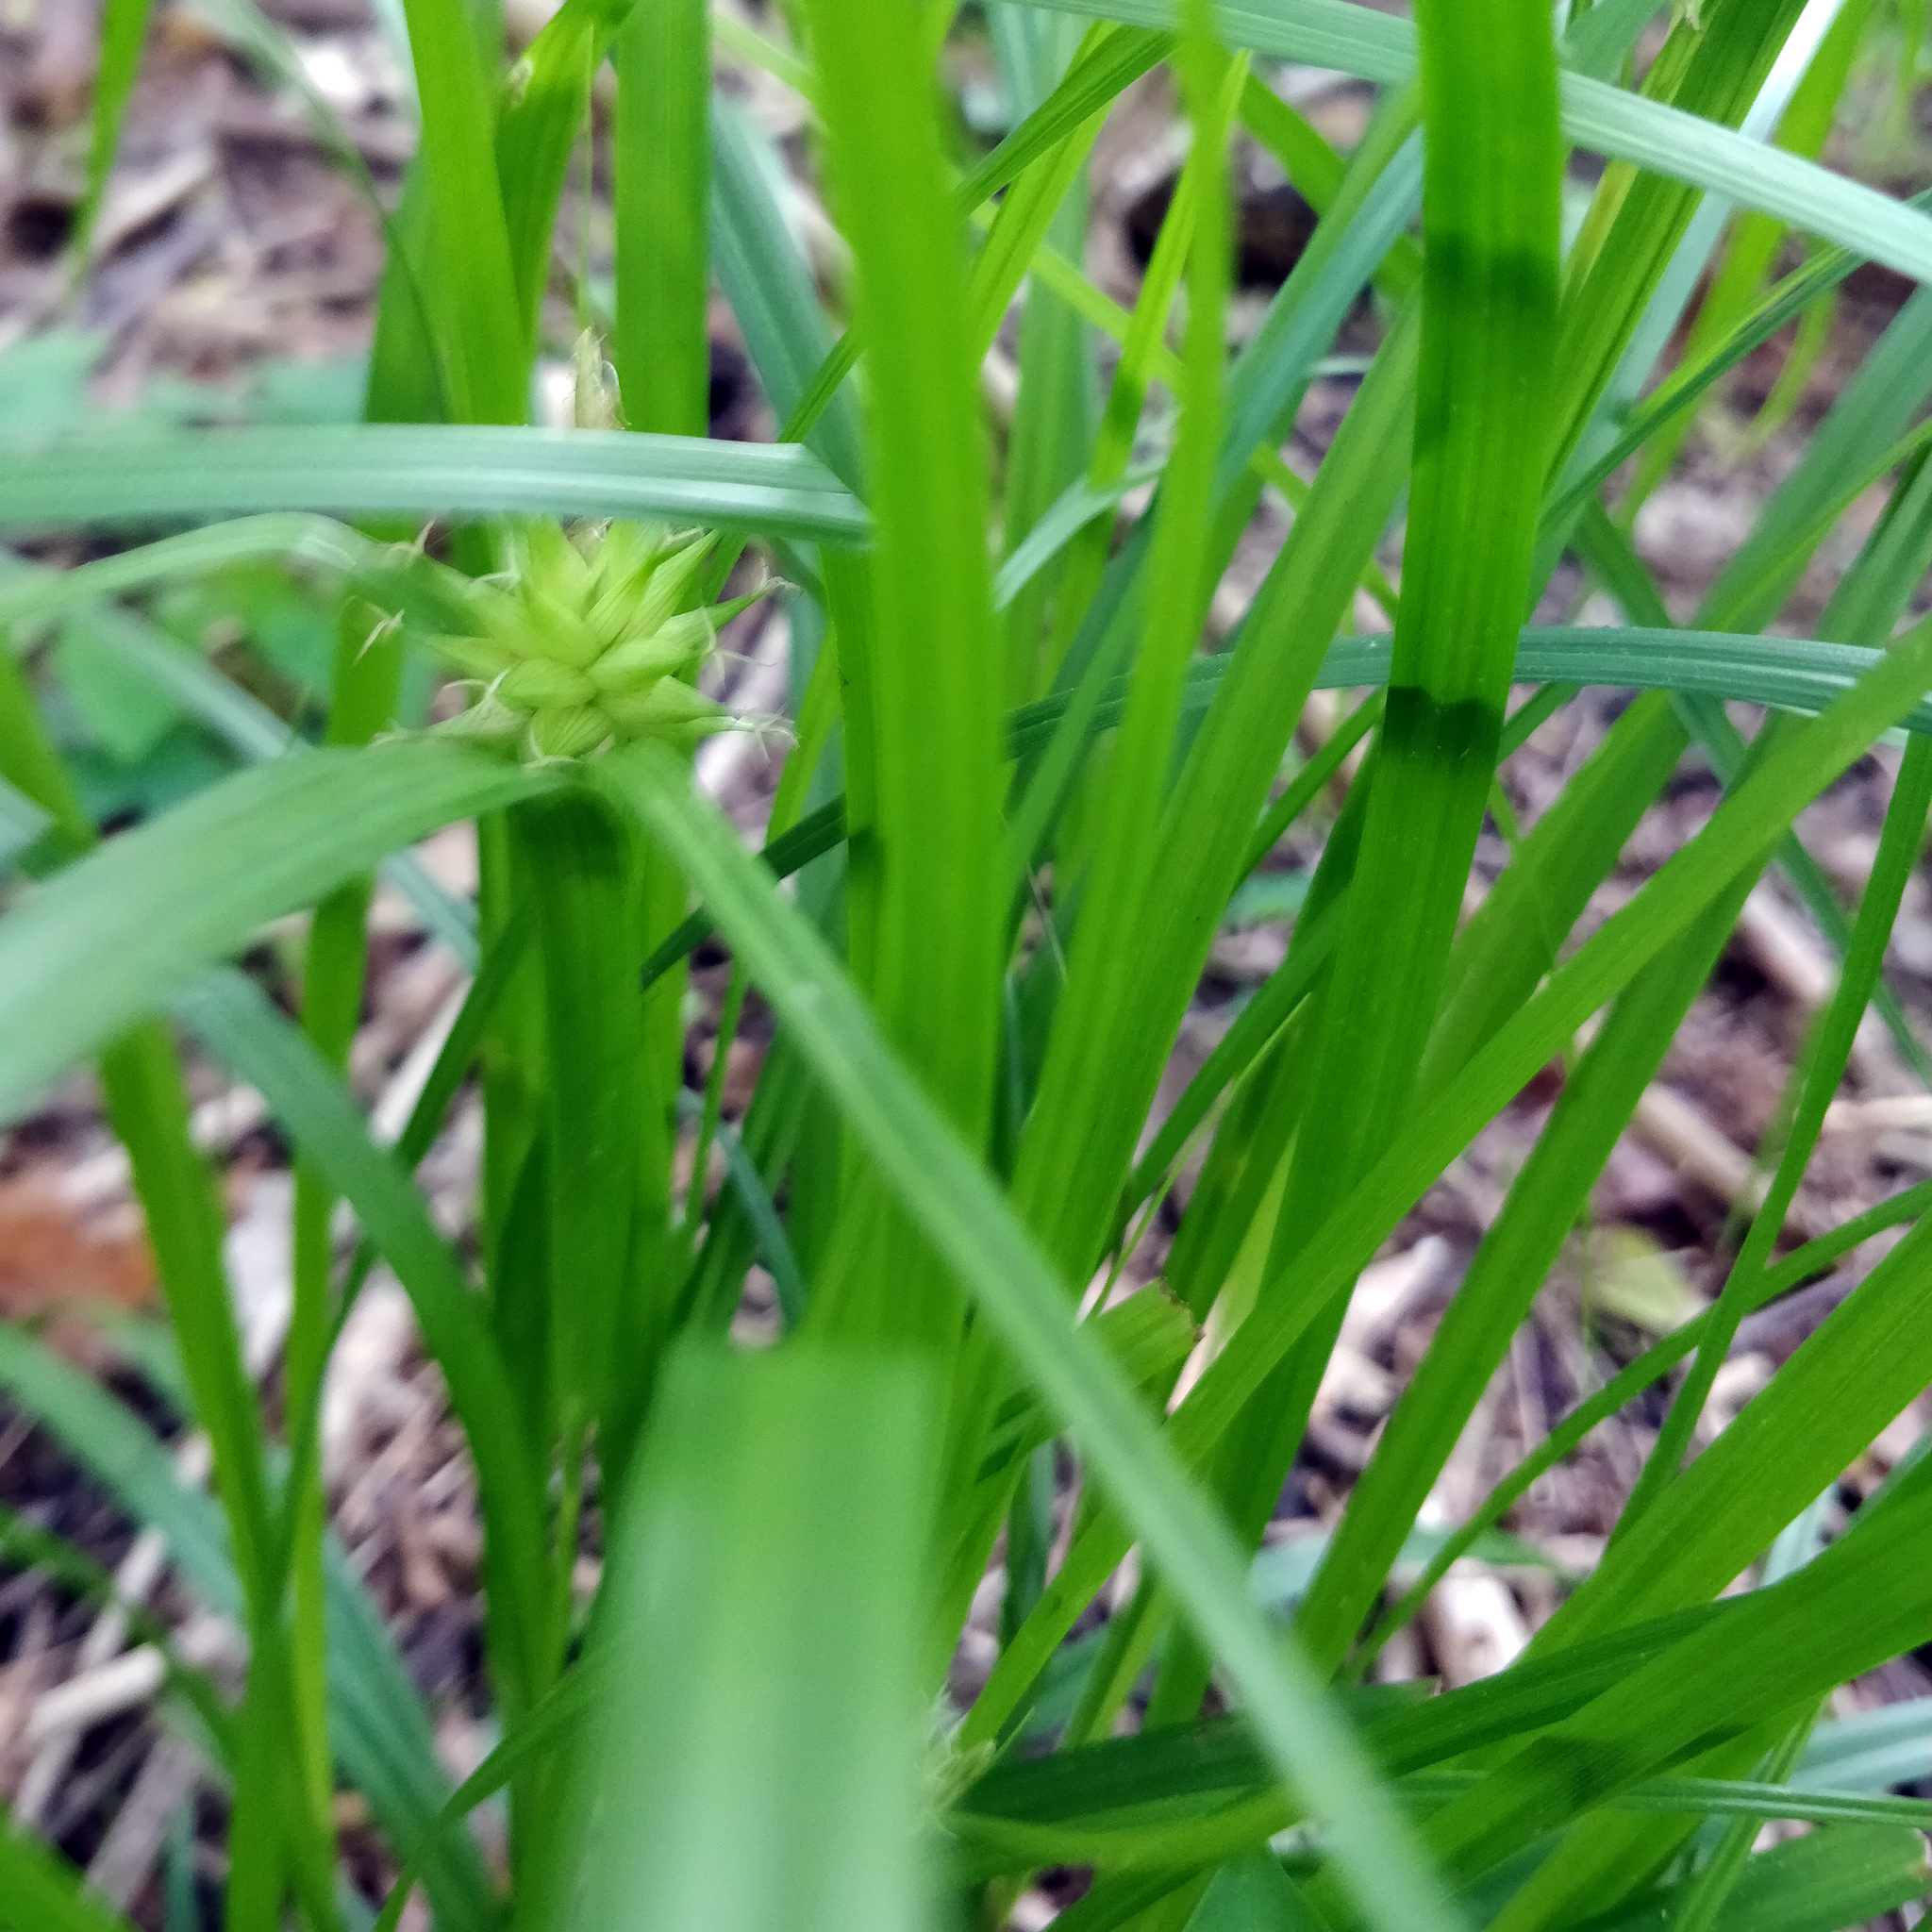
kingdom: Plantae
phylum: Tracheophyta
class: Liliopsida
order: Poales
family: Cyperaceae
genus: Carex
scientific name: Carex grayi
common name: Asa gray's sedge
